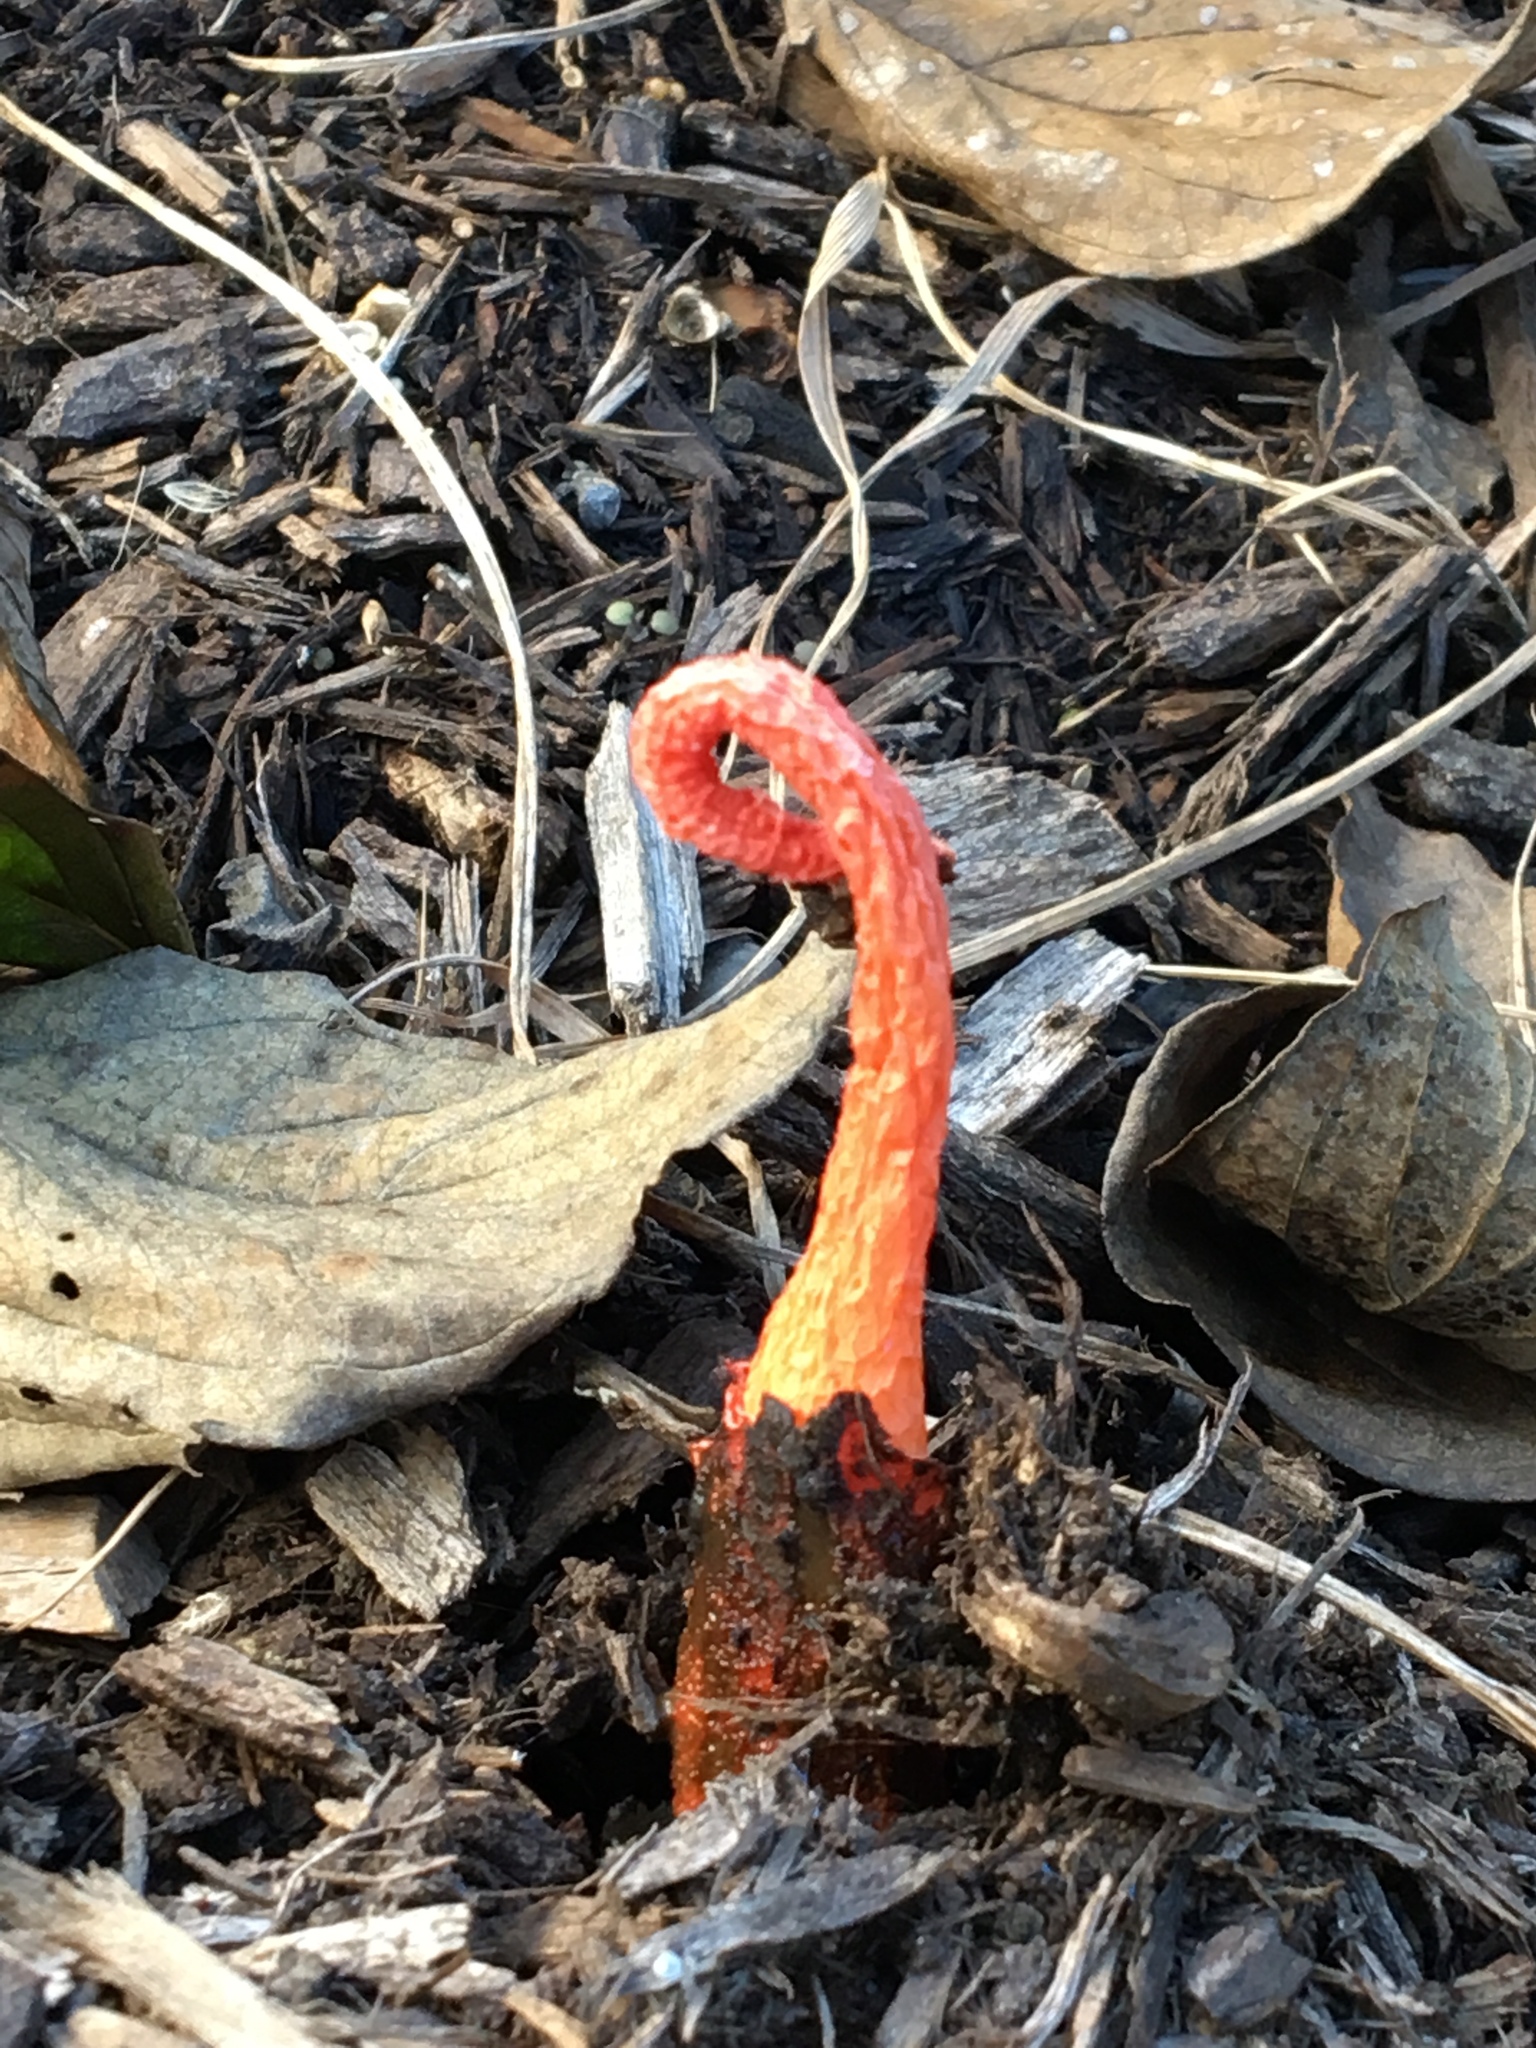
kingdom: Fungi
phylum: Basidiomycota
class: Agaricomycetes
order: Phallales
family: Phallaceae
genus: Phallus
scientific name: Phallus rugulosus
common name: Wrinkly stinkhorn
